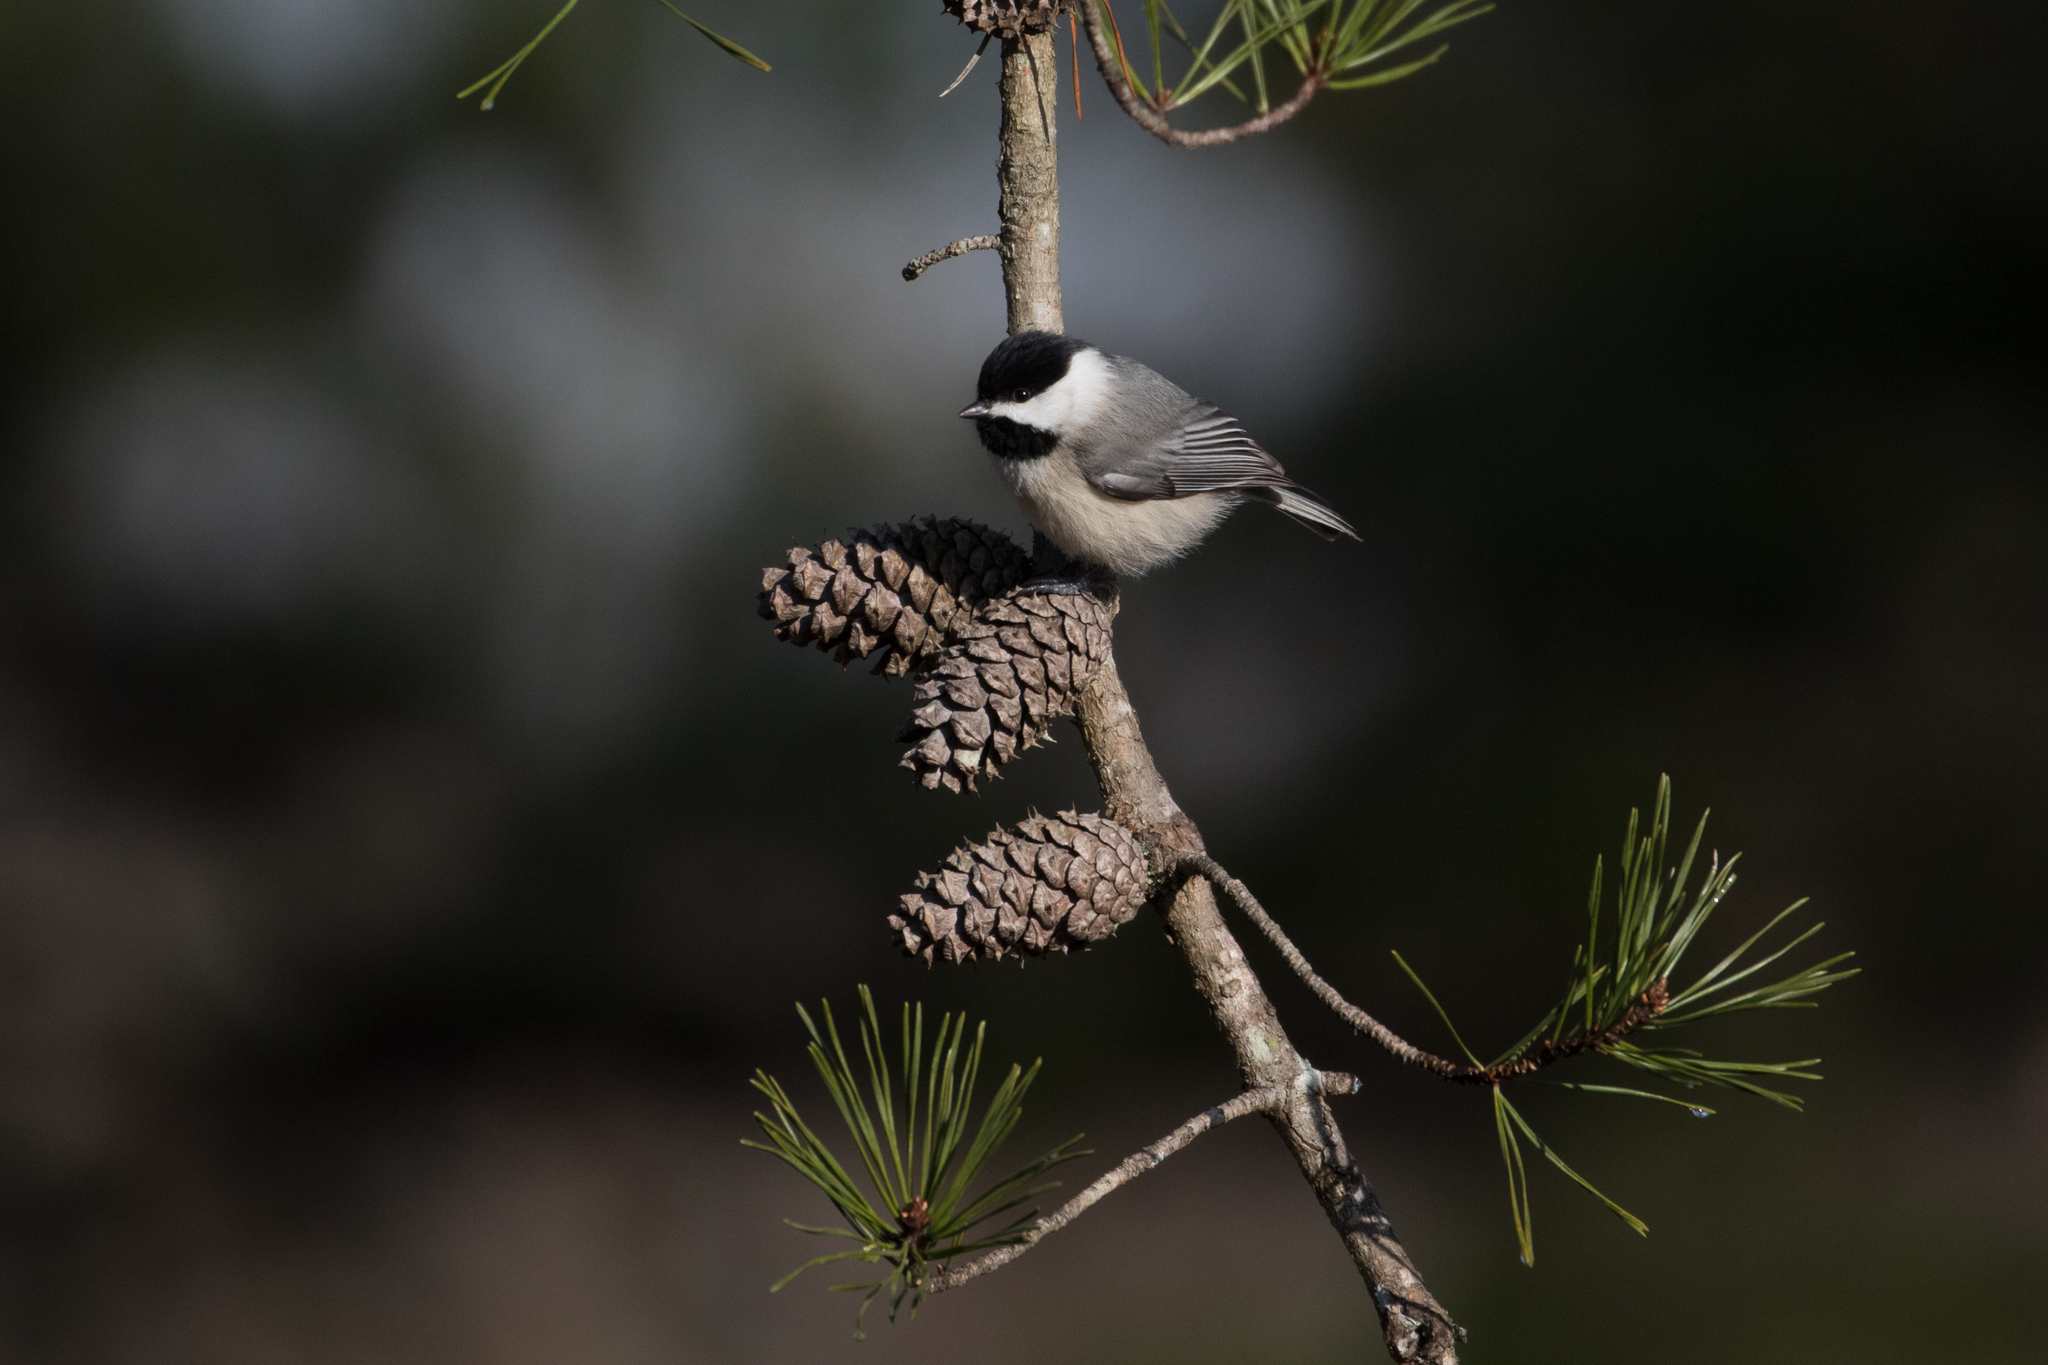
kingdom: Animalia
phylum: Chordata
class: Aves
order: Passeriformes
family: Paridae
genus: Poecile
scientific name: Poecile carolinensis
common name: Carolina chickadee
